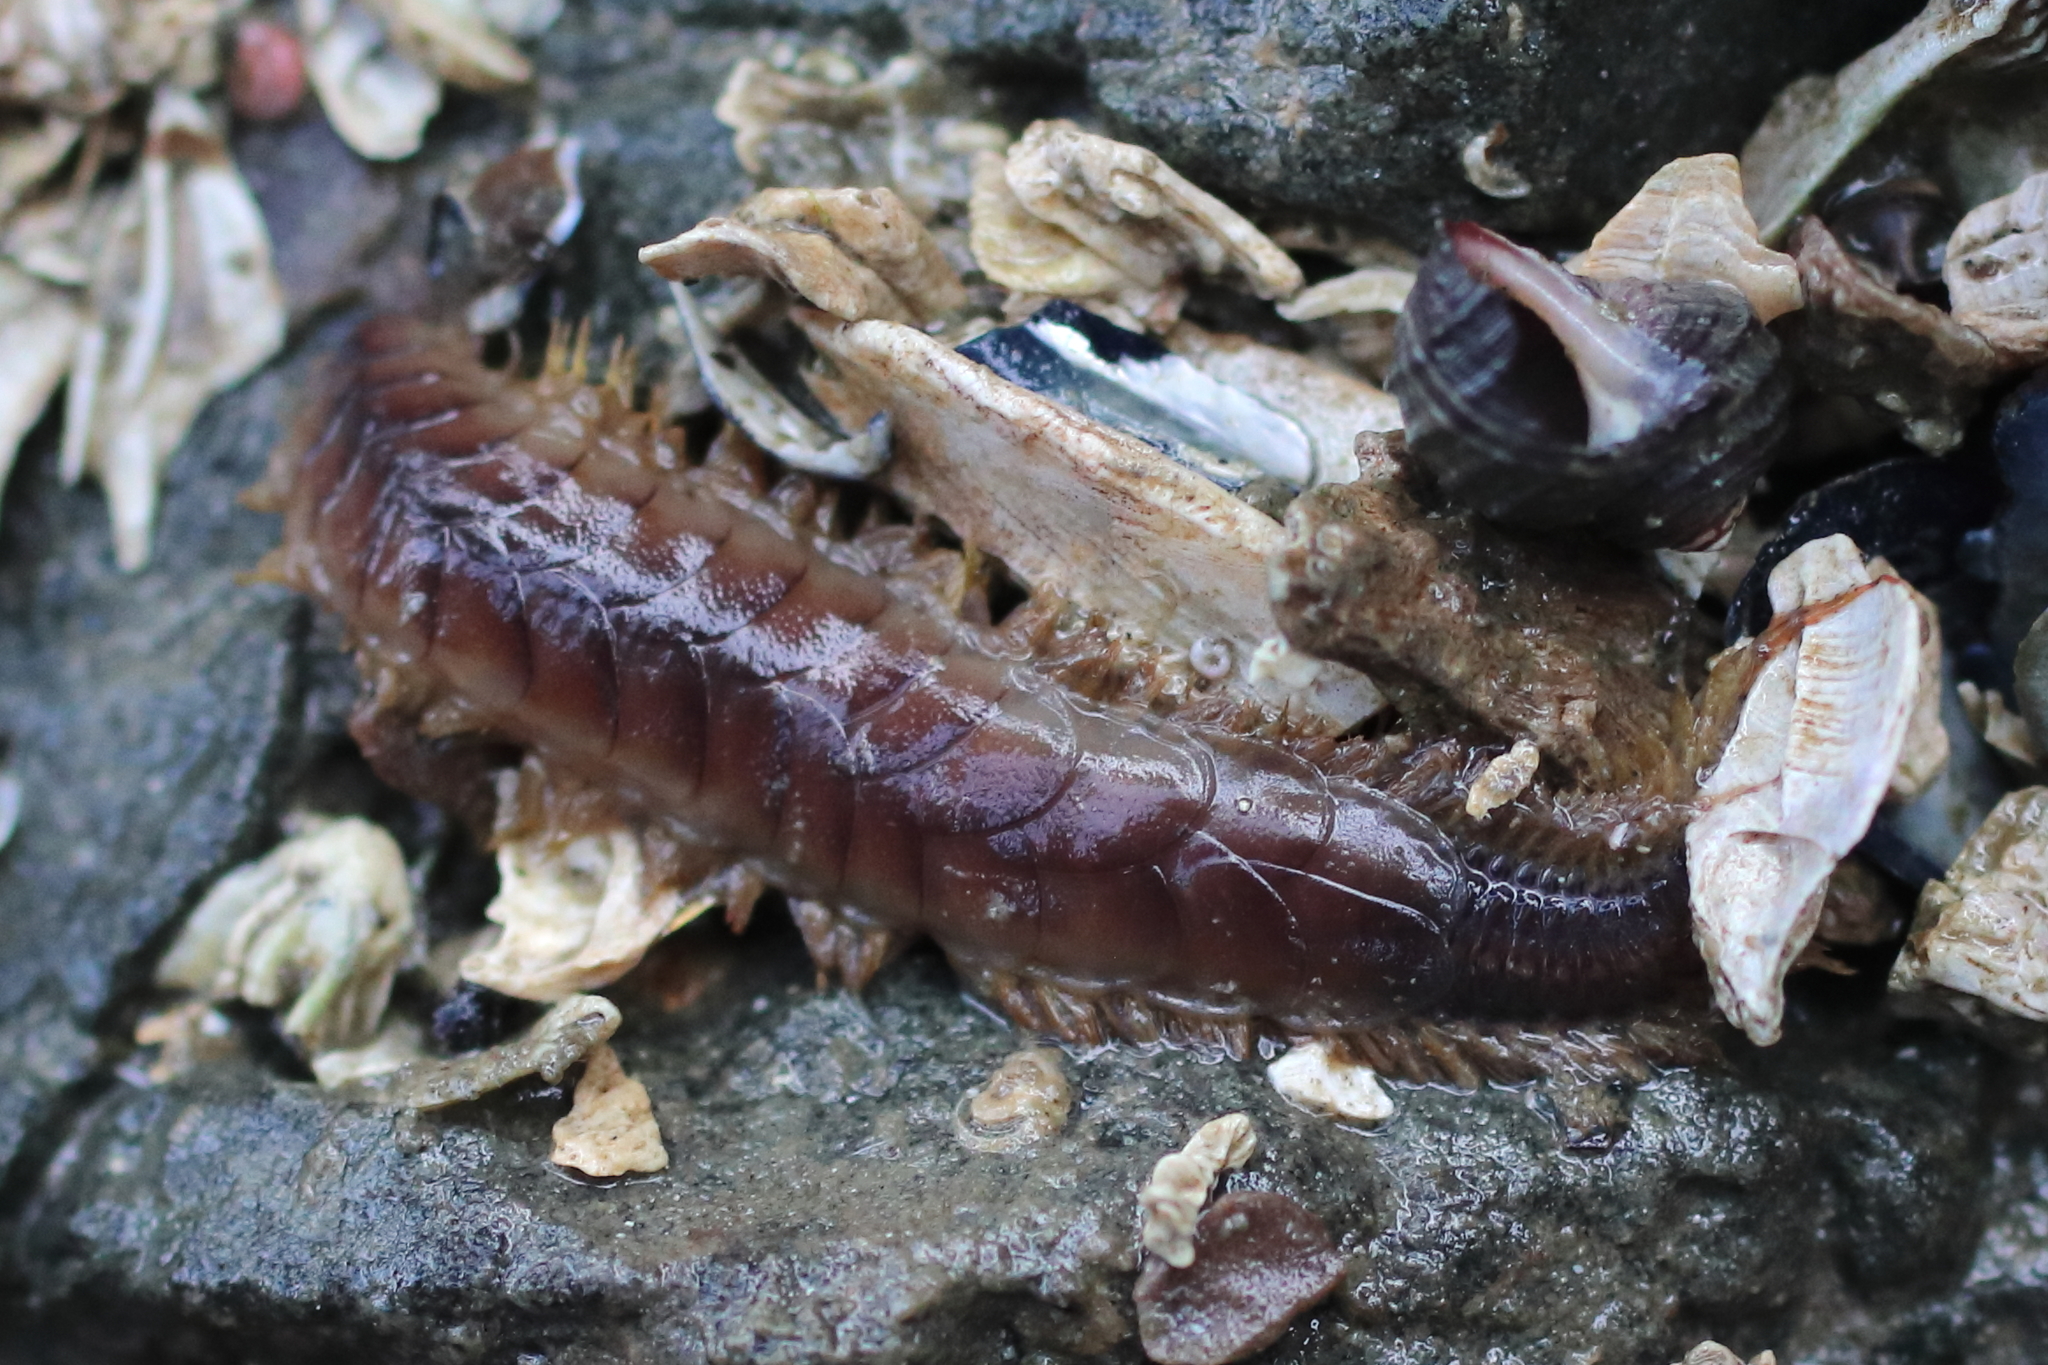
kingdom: Animalia
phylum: Annelida
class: Polychaeta
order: Phyllodocida
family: Polynoidae
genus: Hermadionella
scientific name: Hermadionella truncata
